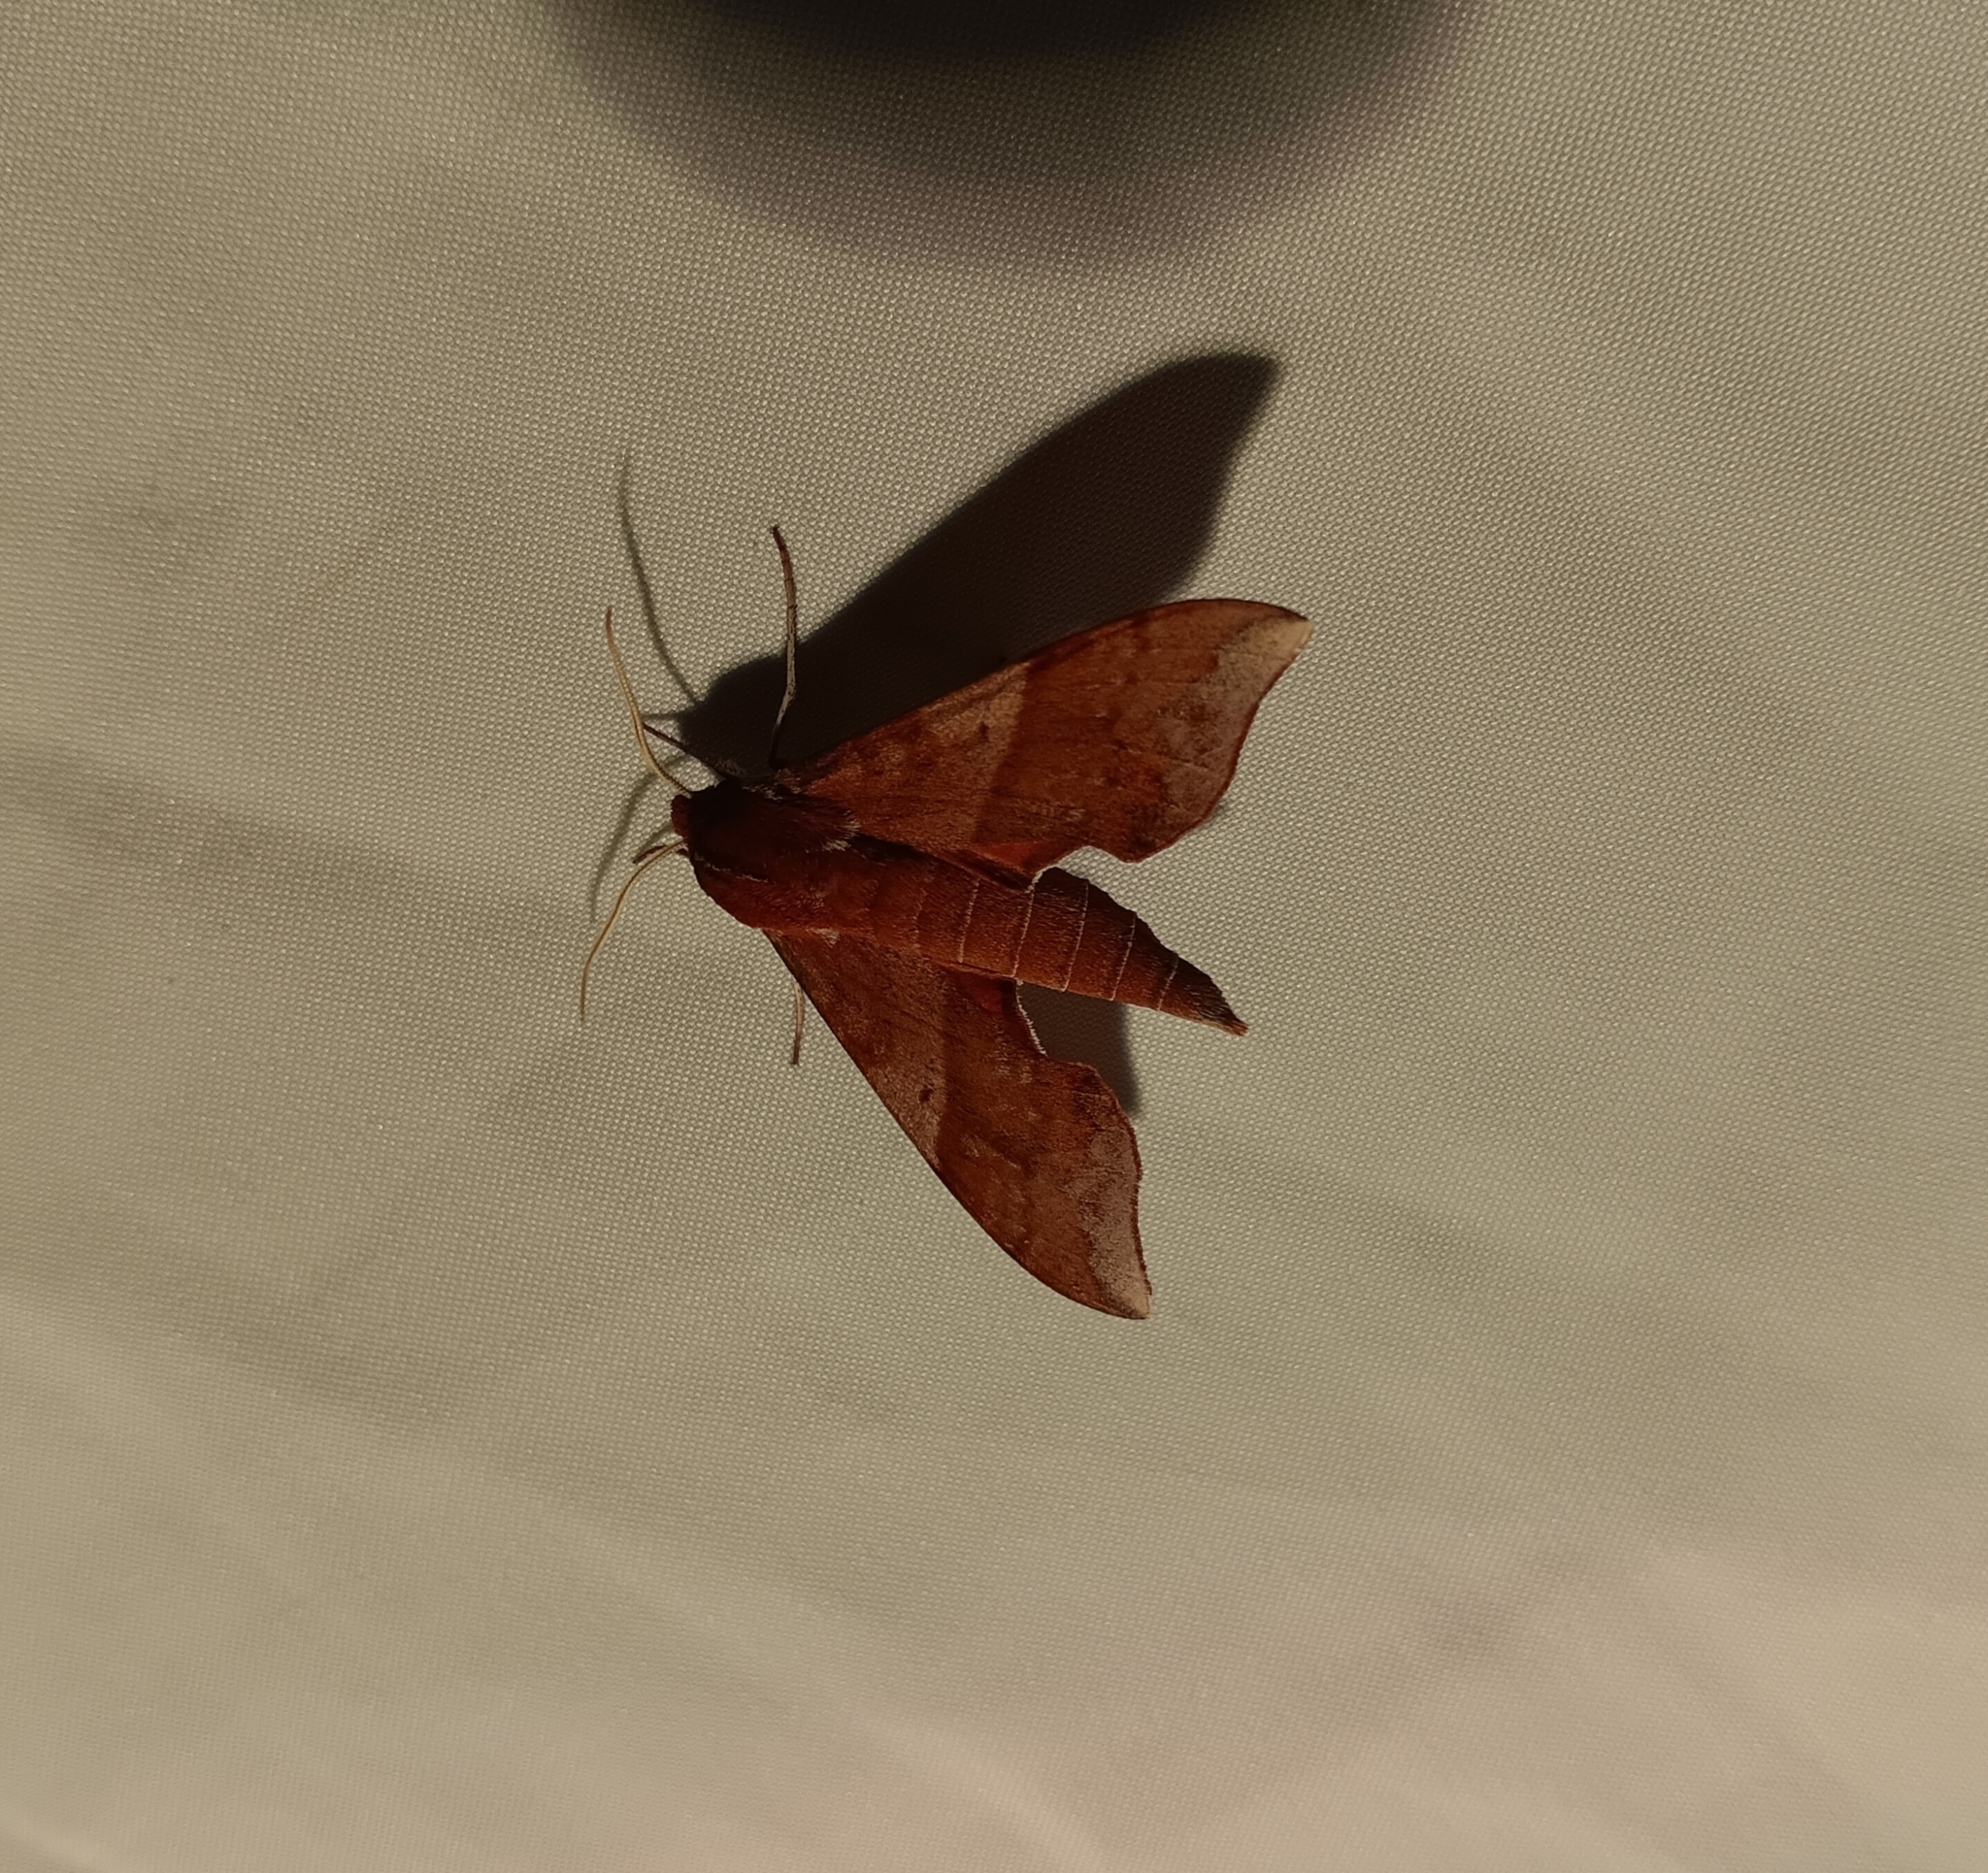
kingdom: Animalia
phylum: Arthropoda
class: Insecta
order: Lepidoptera
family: Sphingidae
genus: Darapsa
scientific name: Darapsa choerilus
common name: Azalea sphinx
